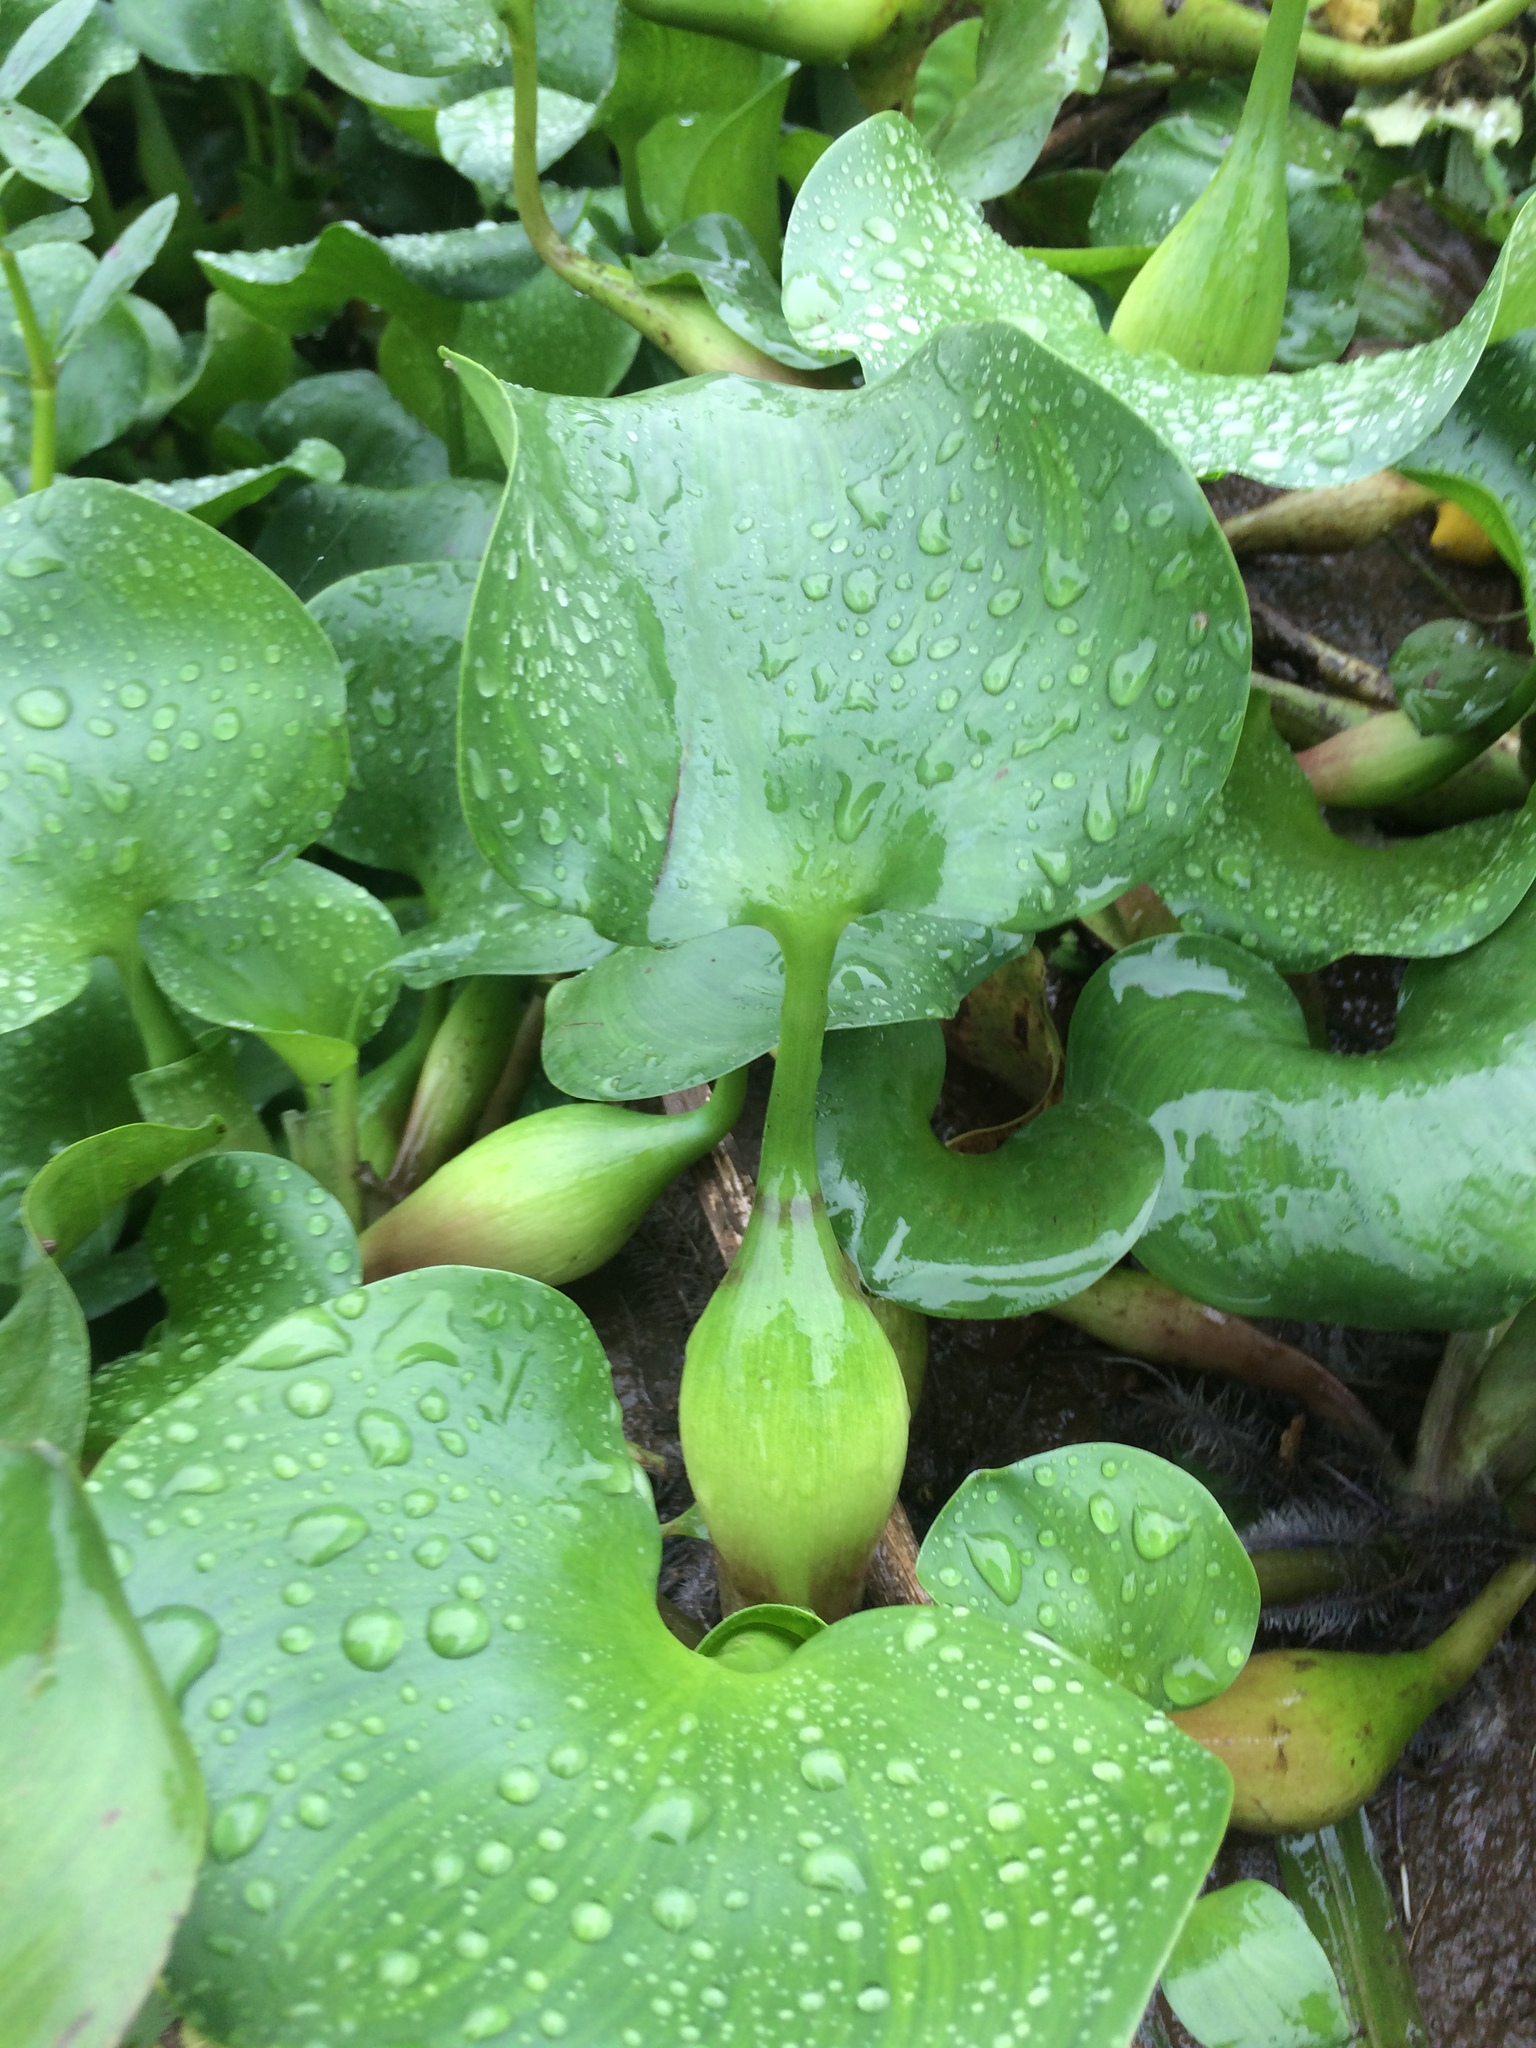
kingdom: Plantae
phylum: Tracheophyta
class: Liliopsida
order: Commelinales
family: Pontederiaceae
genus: Pontederia
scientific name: Pontederia crassipes
